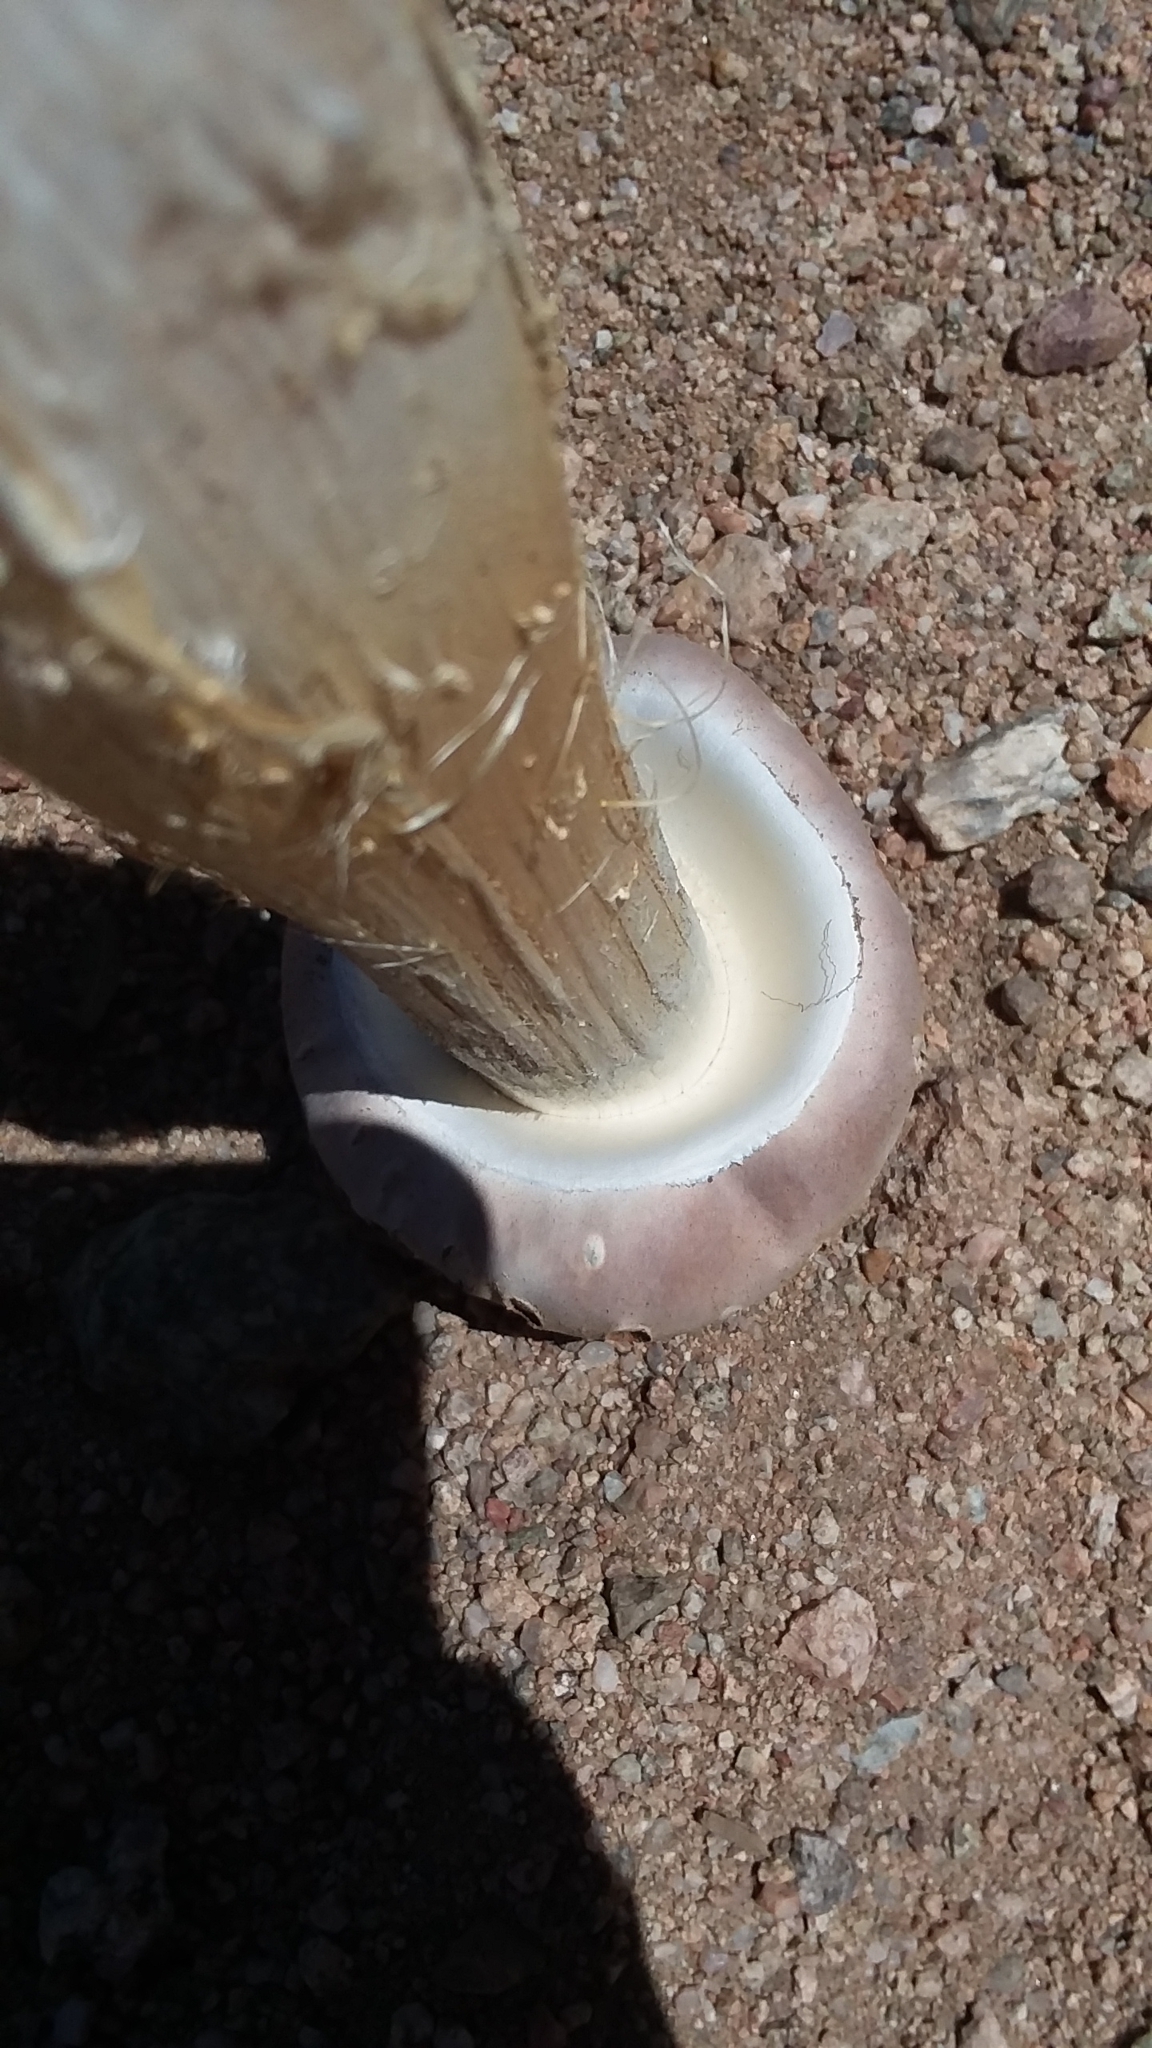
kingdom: Fungi
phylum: Basidiomycota
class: Agaricomycetes
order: Agaricales
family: Agaricaceae
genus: Battarreoides
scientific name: Battarreoides diguetii
